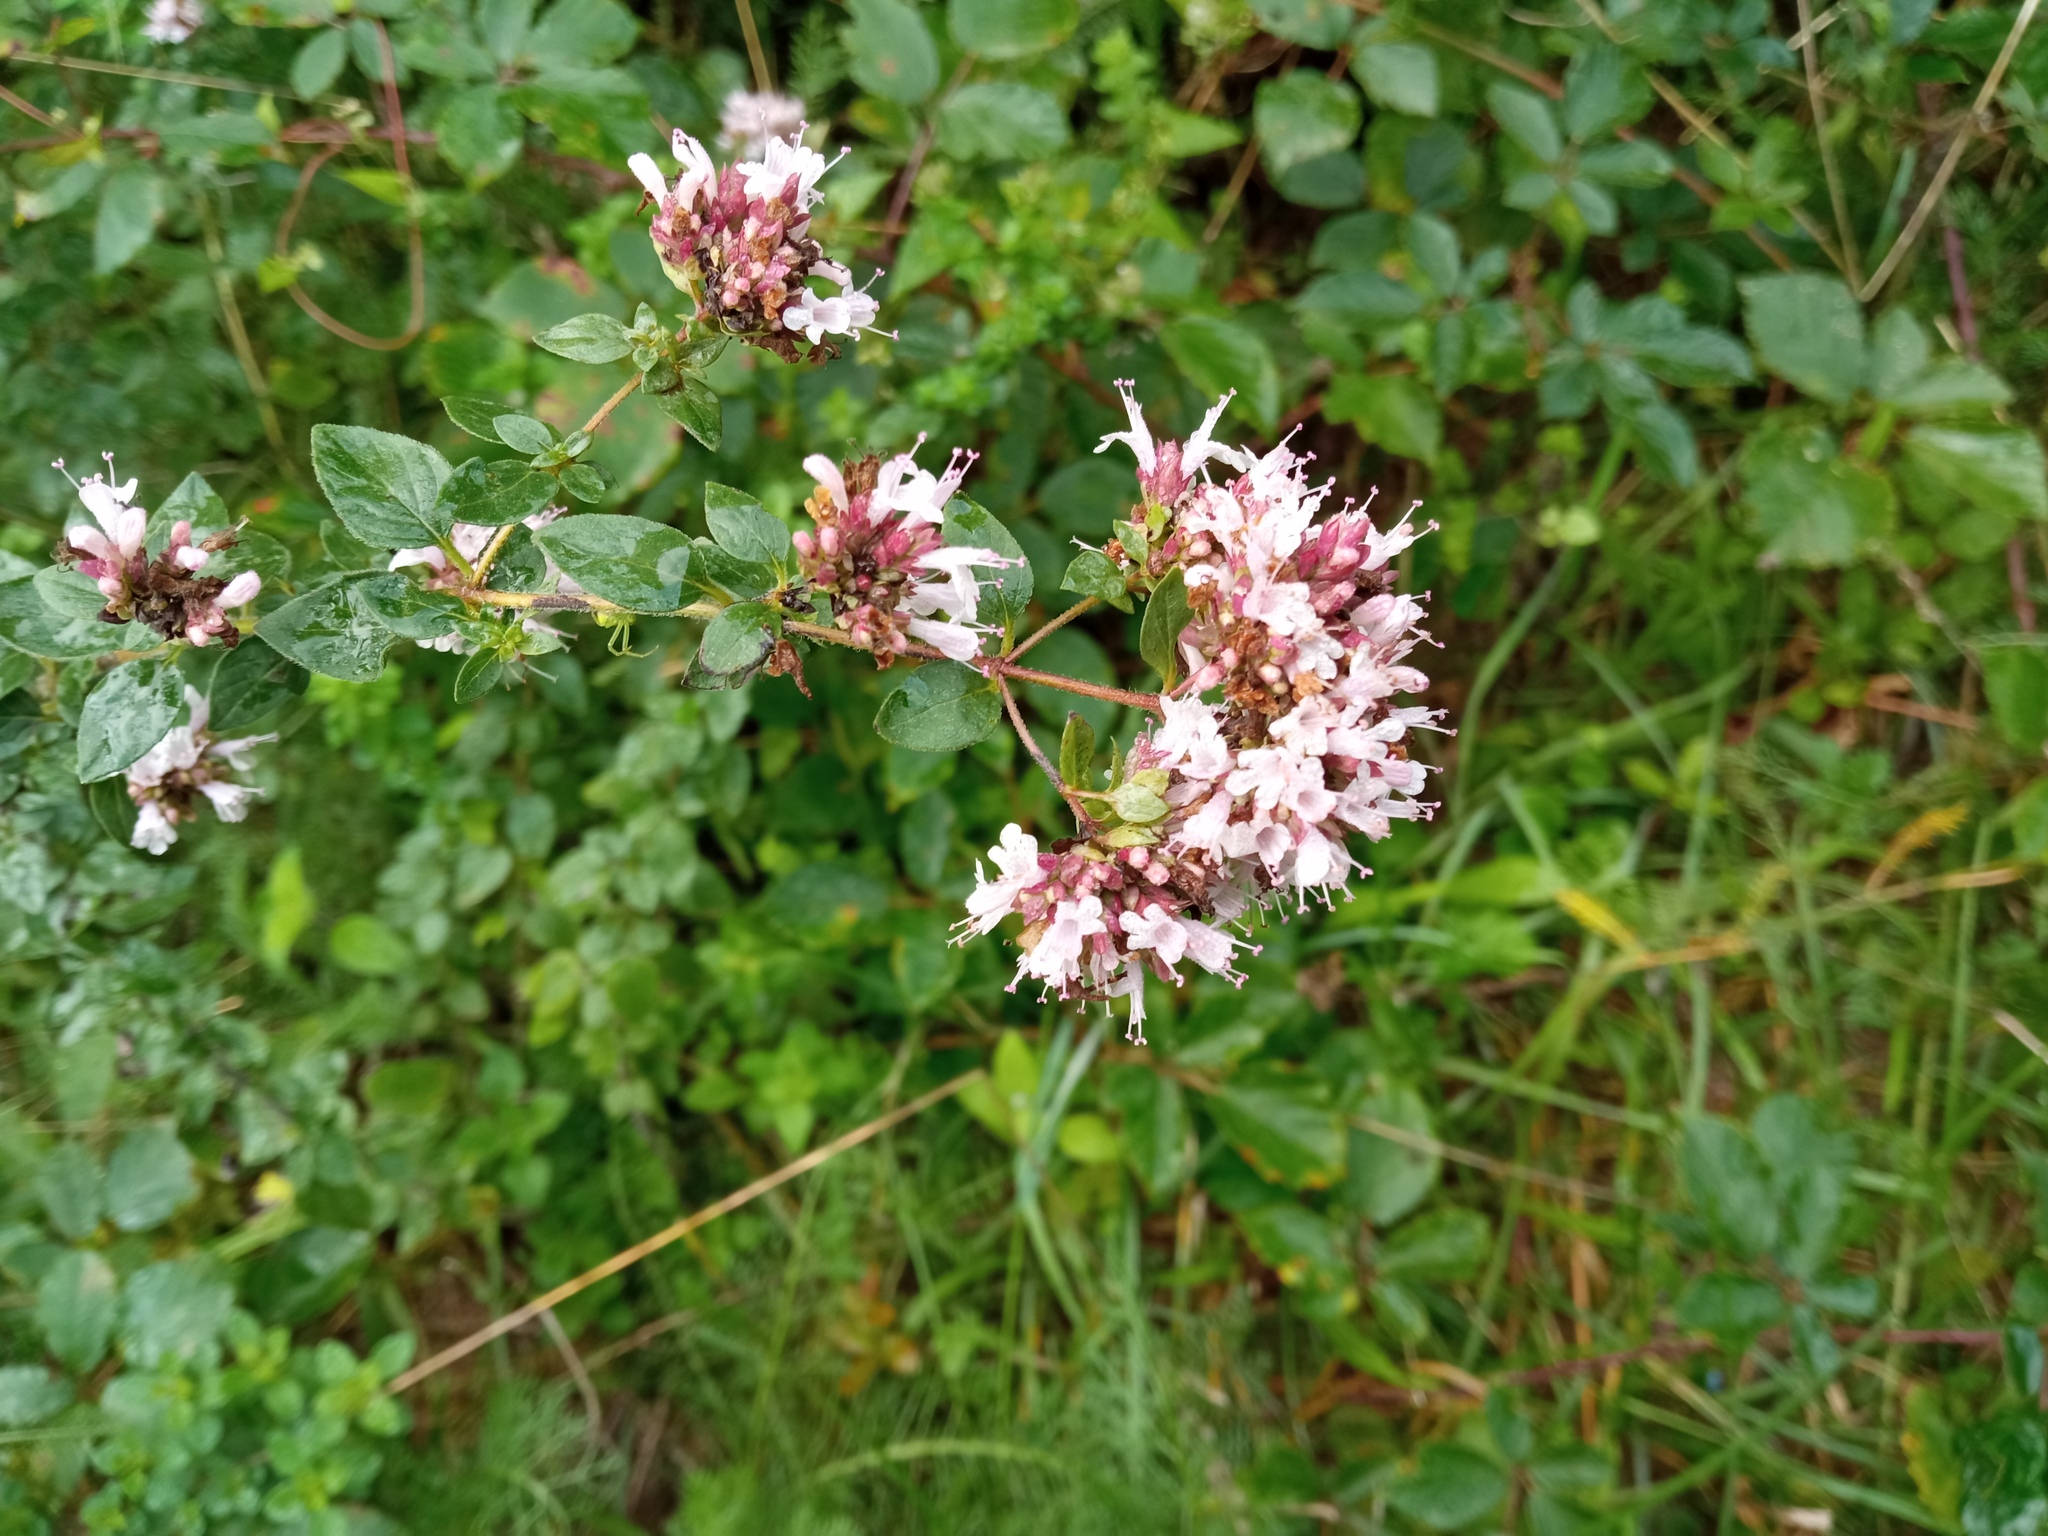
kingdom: Plantae
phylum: Tracheophyta
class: Magnoliopsida
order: Lamiales
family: Lamiaceae
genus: Origanum
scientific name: Origanum vulgare
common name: Wild marjoram
